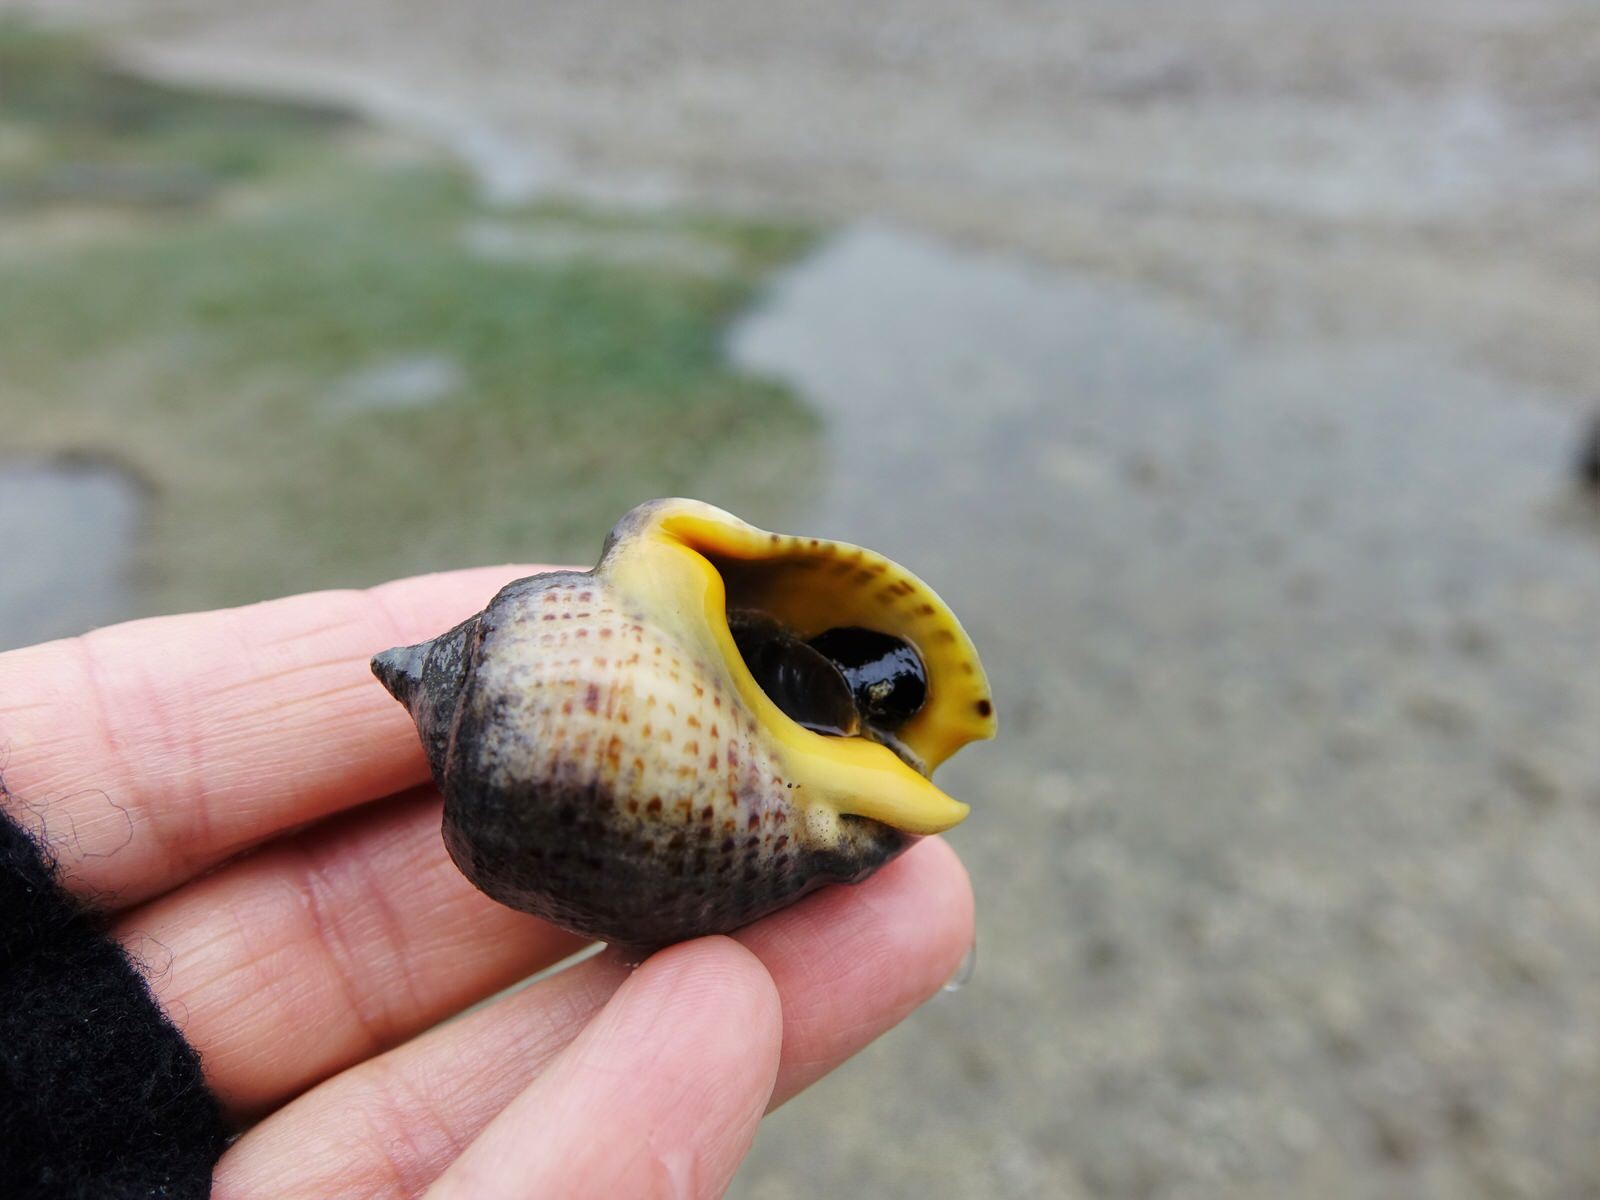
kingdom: Animalia
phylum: Mollusca
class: Gastropoda
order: Neogastropoda
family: Cominellidae
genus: Cominella
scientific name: Cominella adspersa
